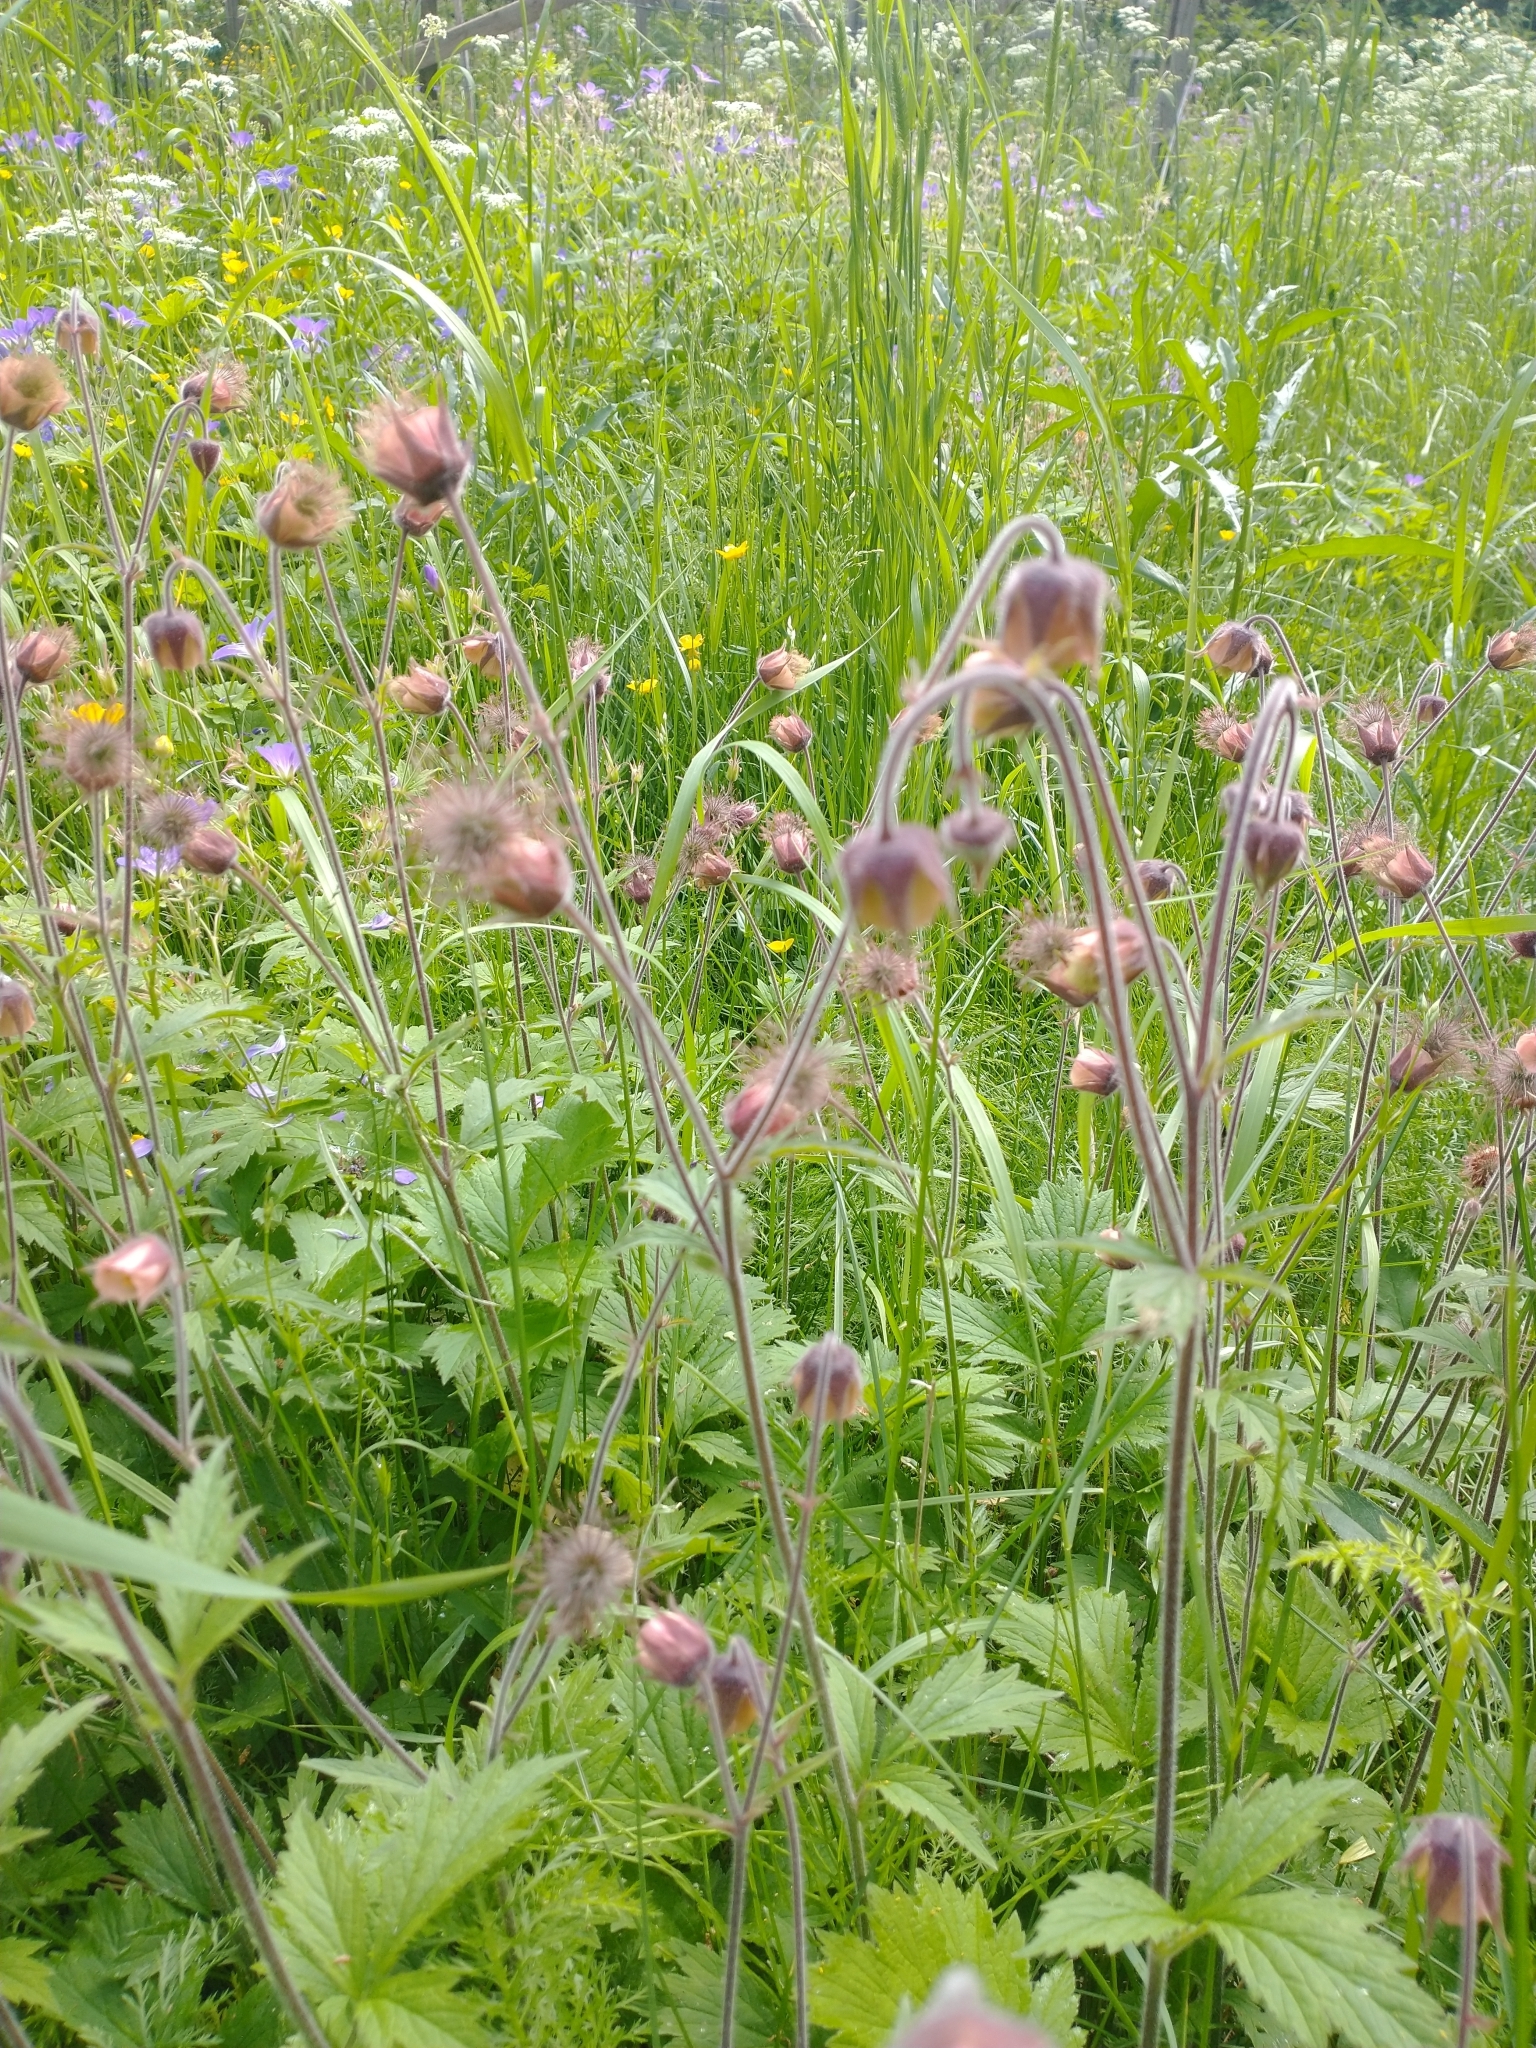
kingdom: Plantae
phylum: Tracheophyta
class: Magnoliopsida
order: Rosales
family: Rosaceae
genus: Geum
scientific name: Geum rivale
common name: Water avens
